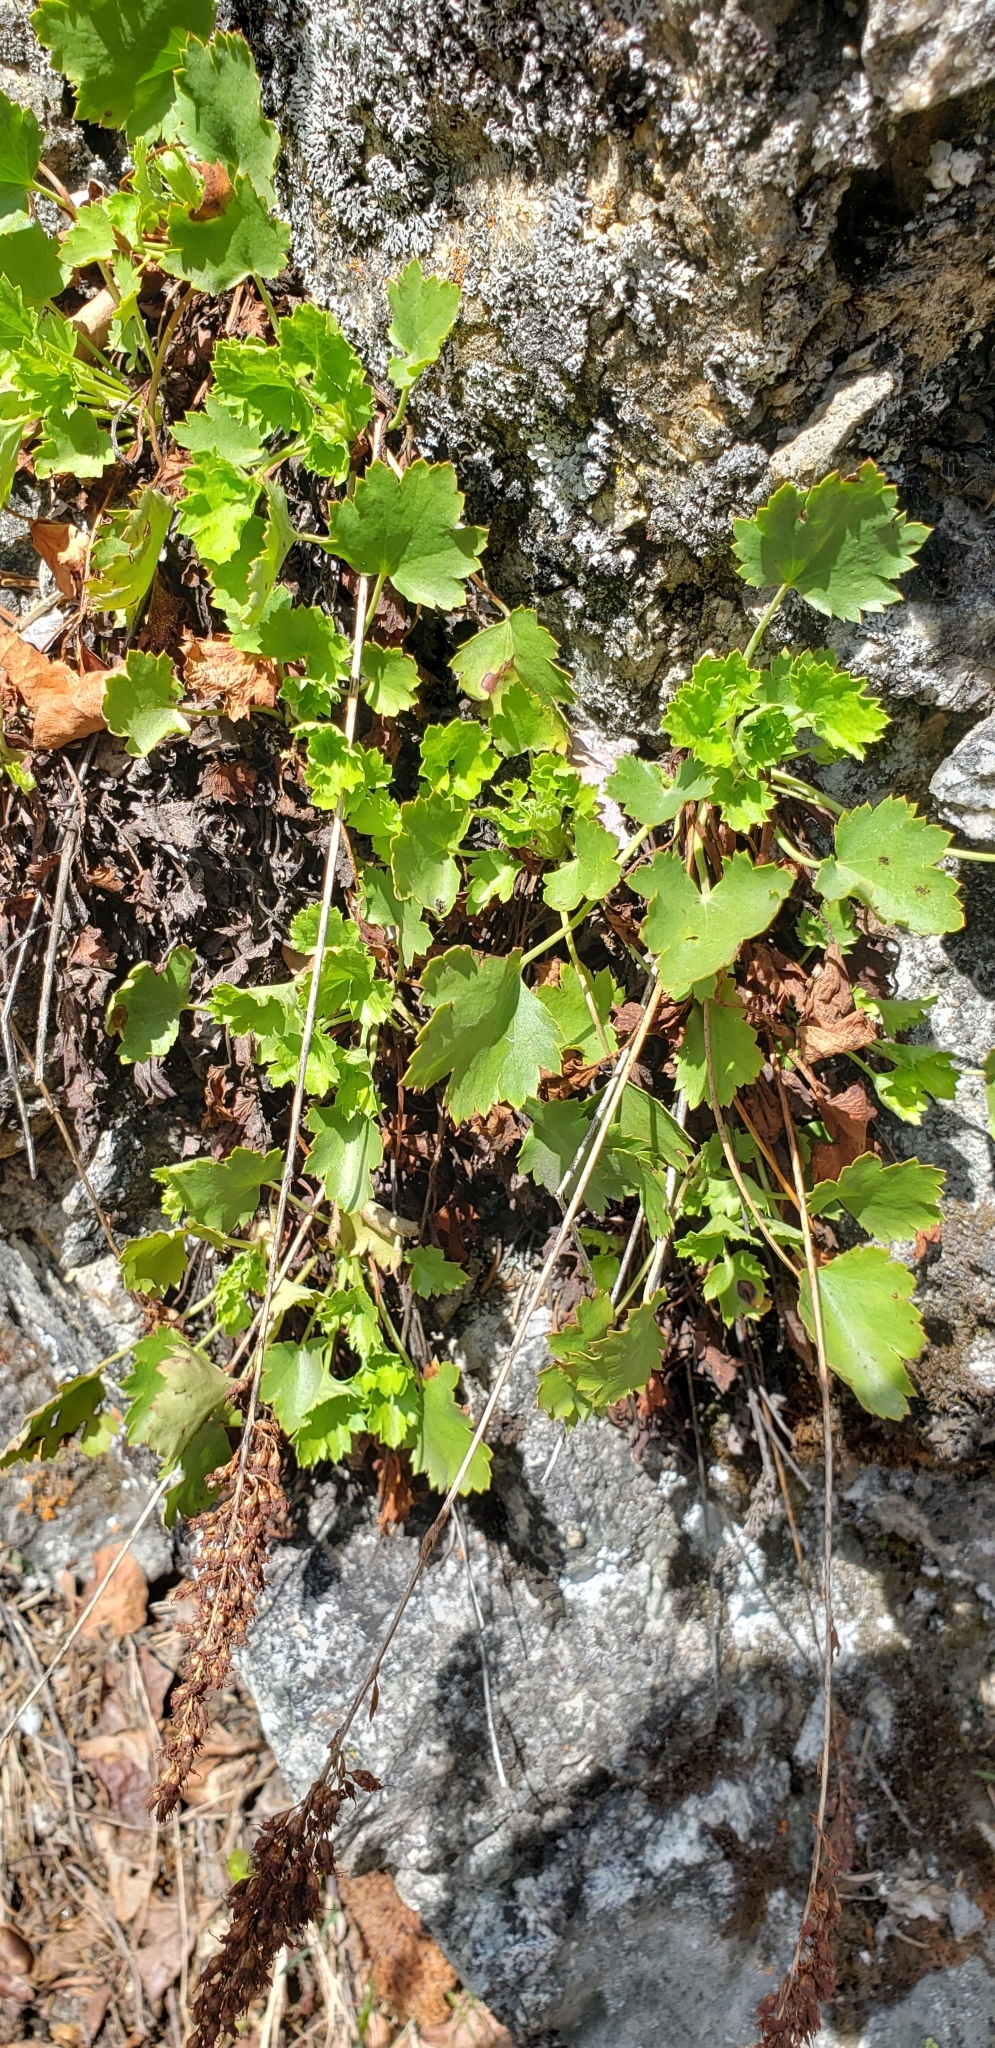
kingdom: Plantae
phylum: Tracheophyta
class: Magnoliopsida
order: Saxifragales
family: Saxifragaceae
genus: Heuchera
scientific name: Heuchera bracteata
